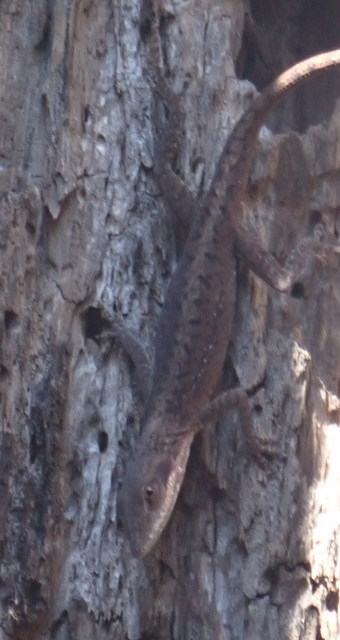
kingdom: Animalia
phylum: Chordata
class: Squamata
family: Dactyloidae
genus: Anolis
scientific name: Anolis carolinensis
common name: Green anole
